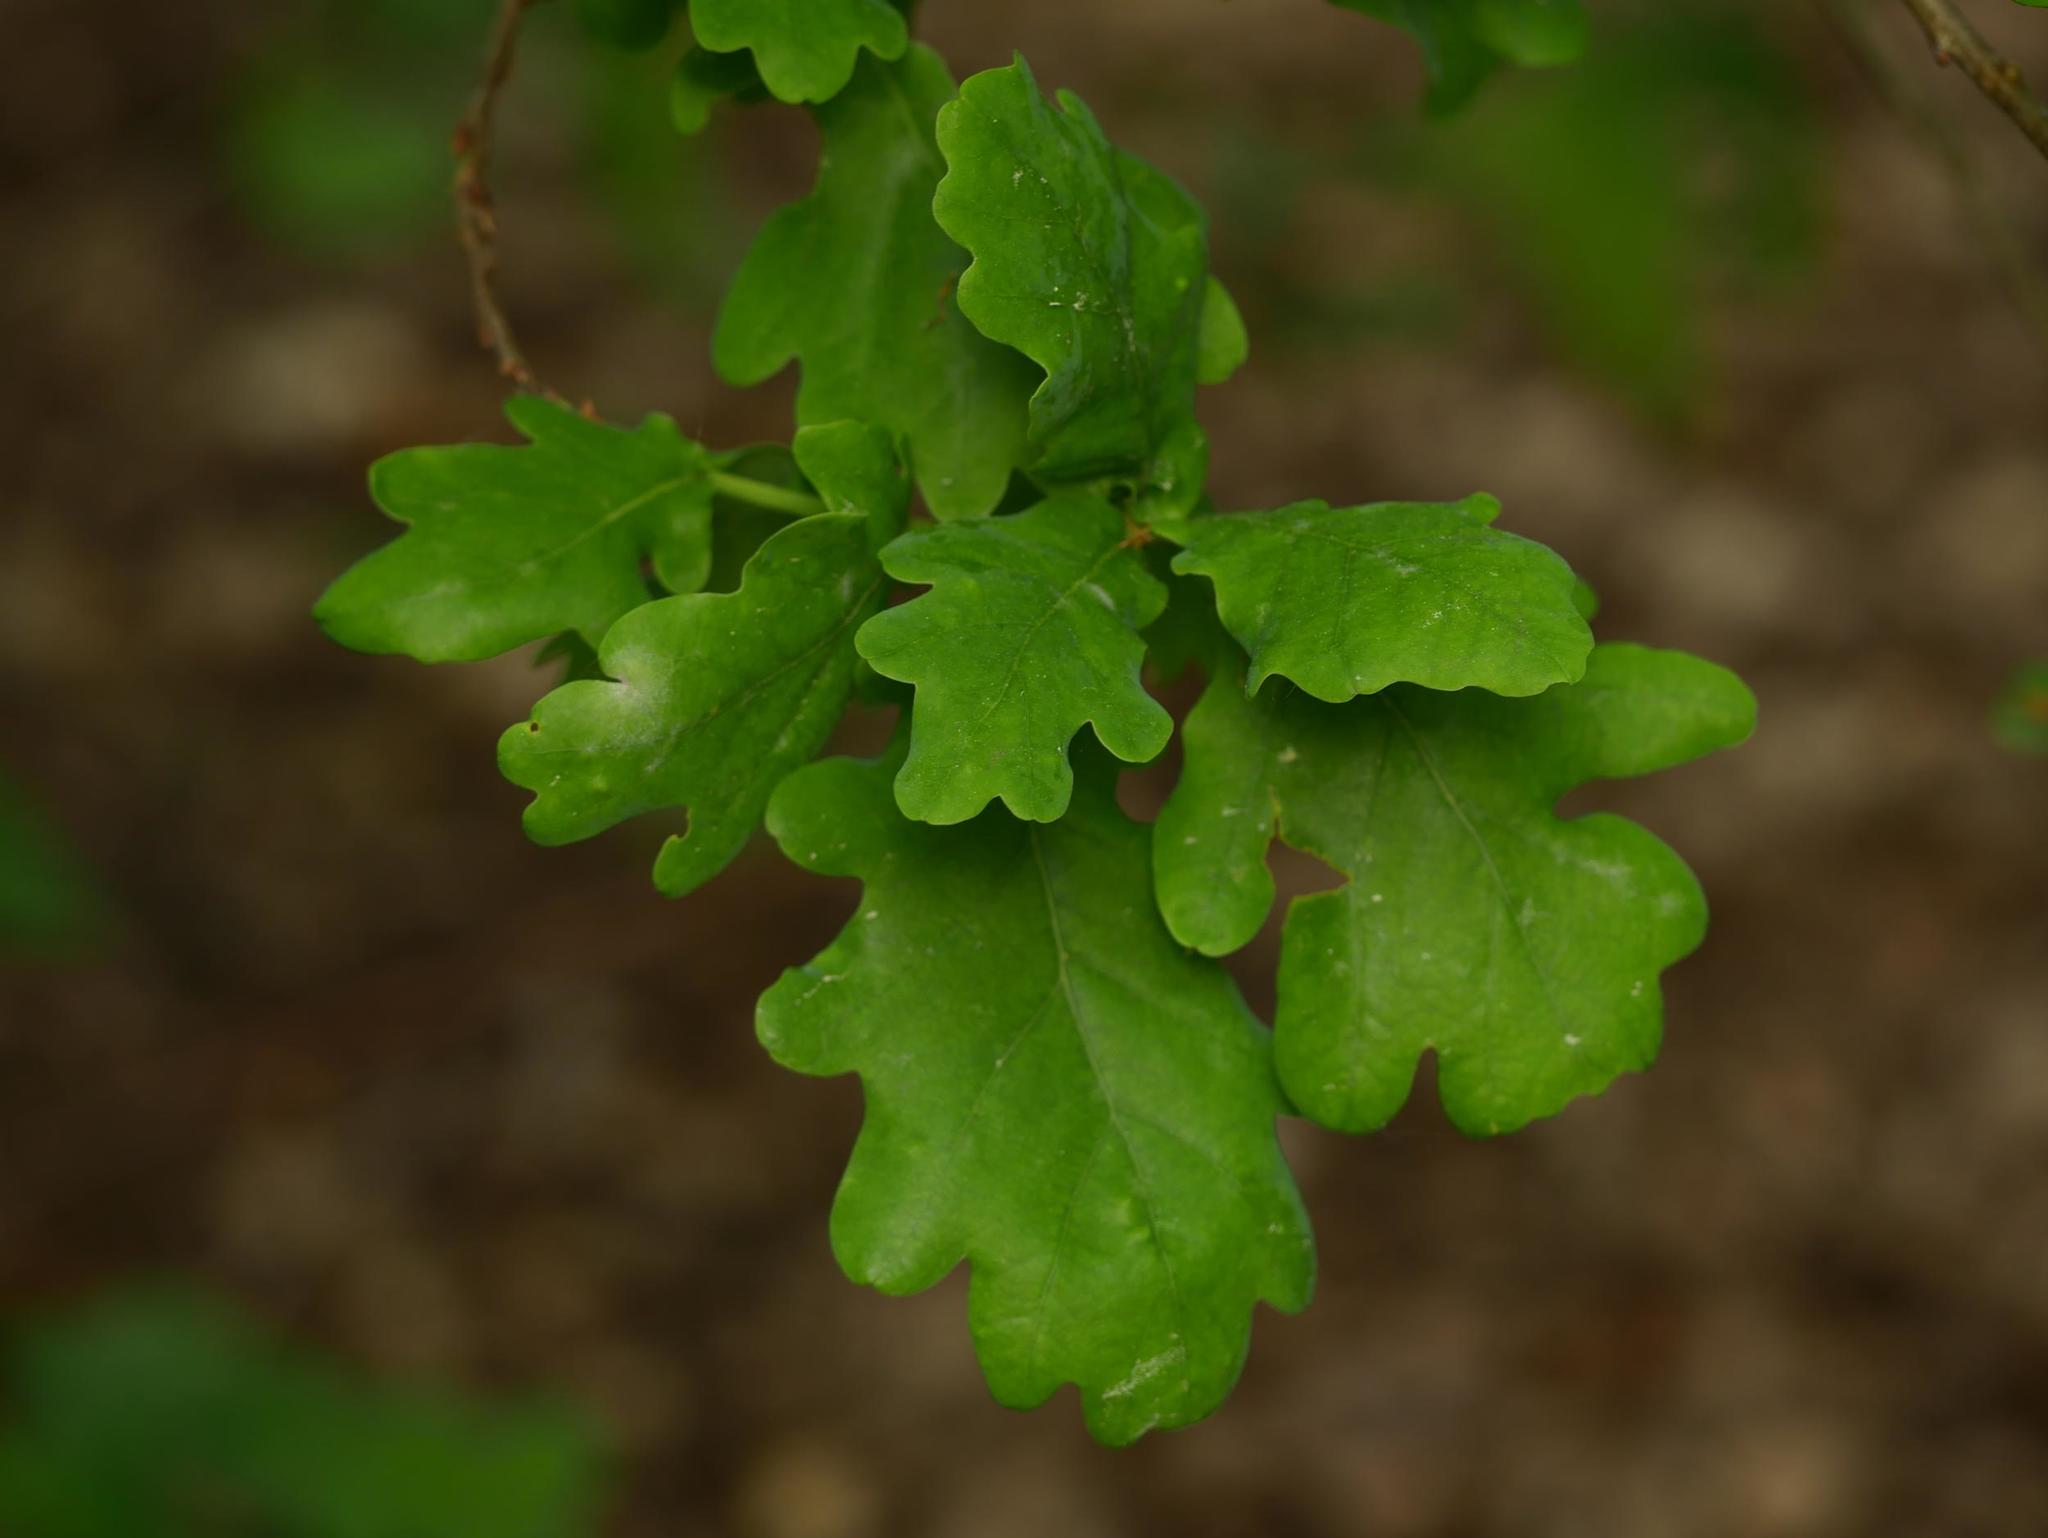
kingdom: Plantae
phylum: Tracheophyta
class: Magnoliopsida
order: Fagales
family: Fagaceae
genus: Quercus
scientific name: Quercus robur
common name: Pedunculate oak
